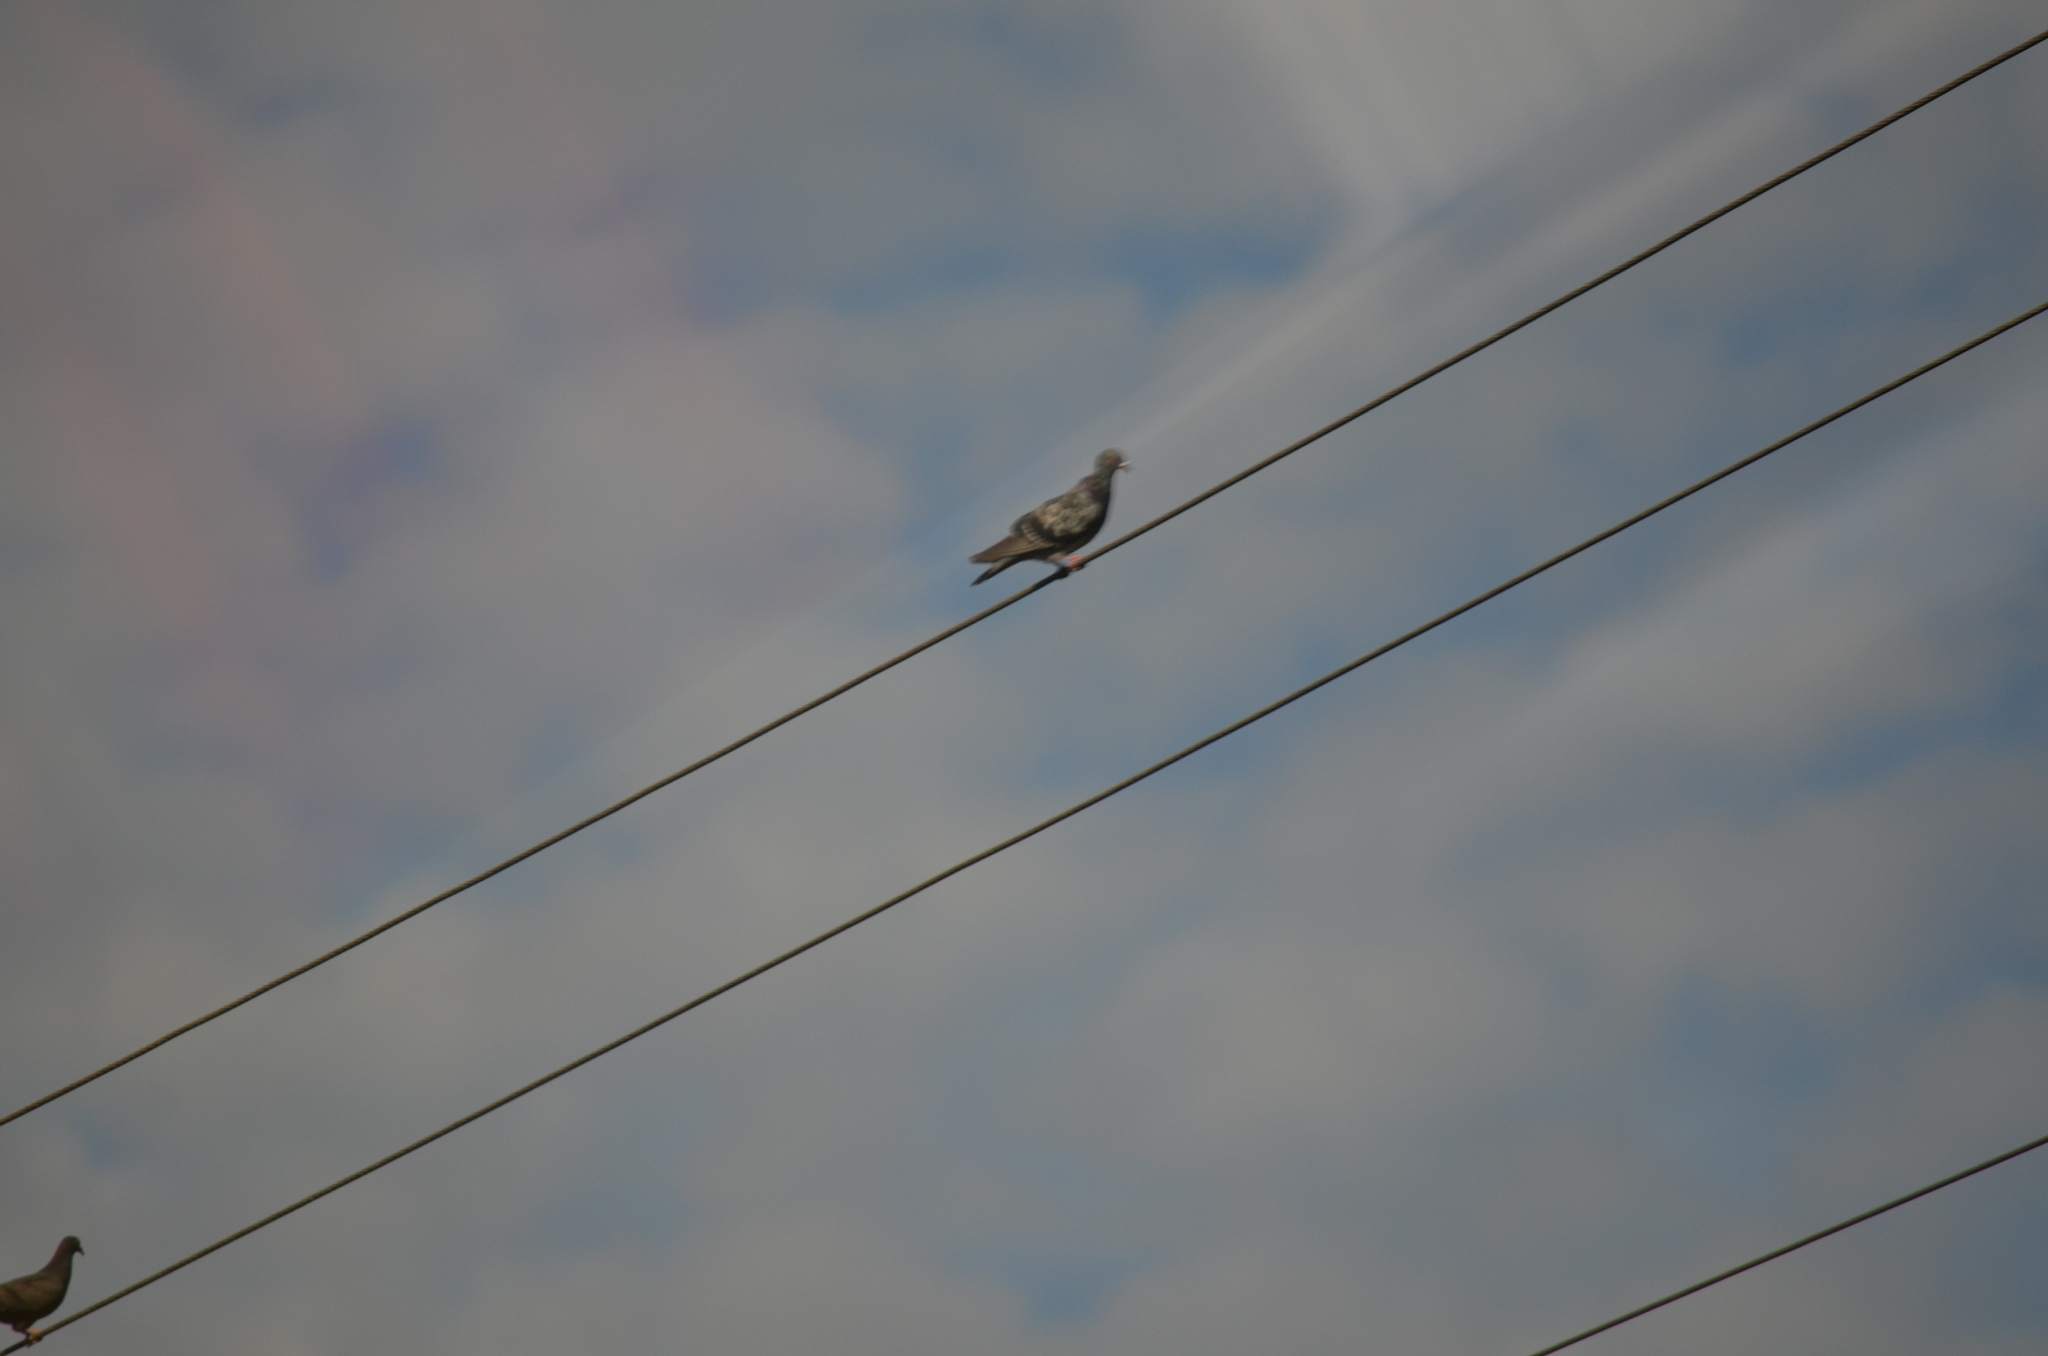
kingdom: Animalia
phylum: Chordata
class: Aves
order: Columbiformes
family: Columbidae
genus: Columba
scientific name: Columba livia
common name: Rock pigeon
